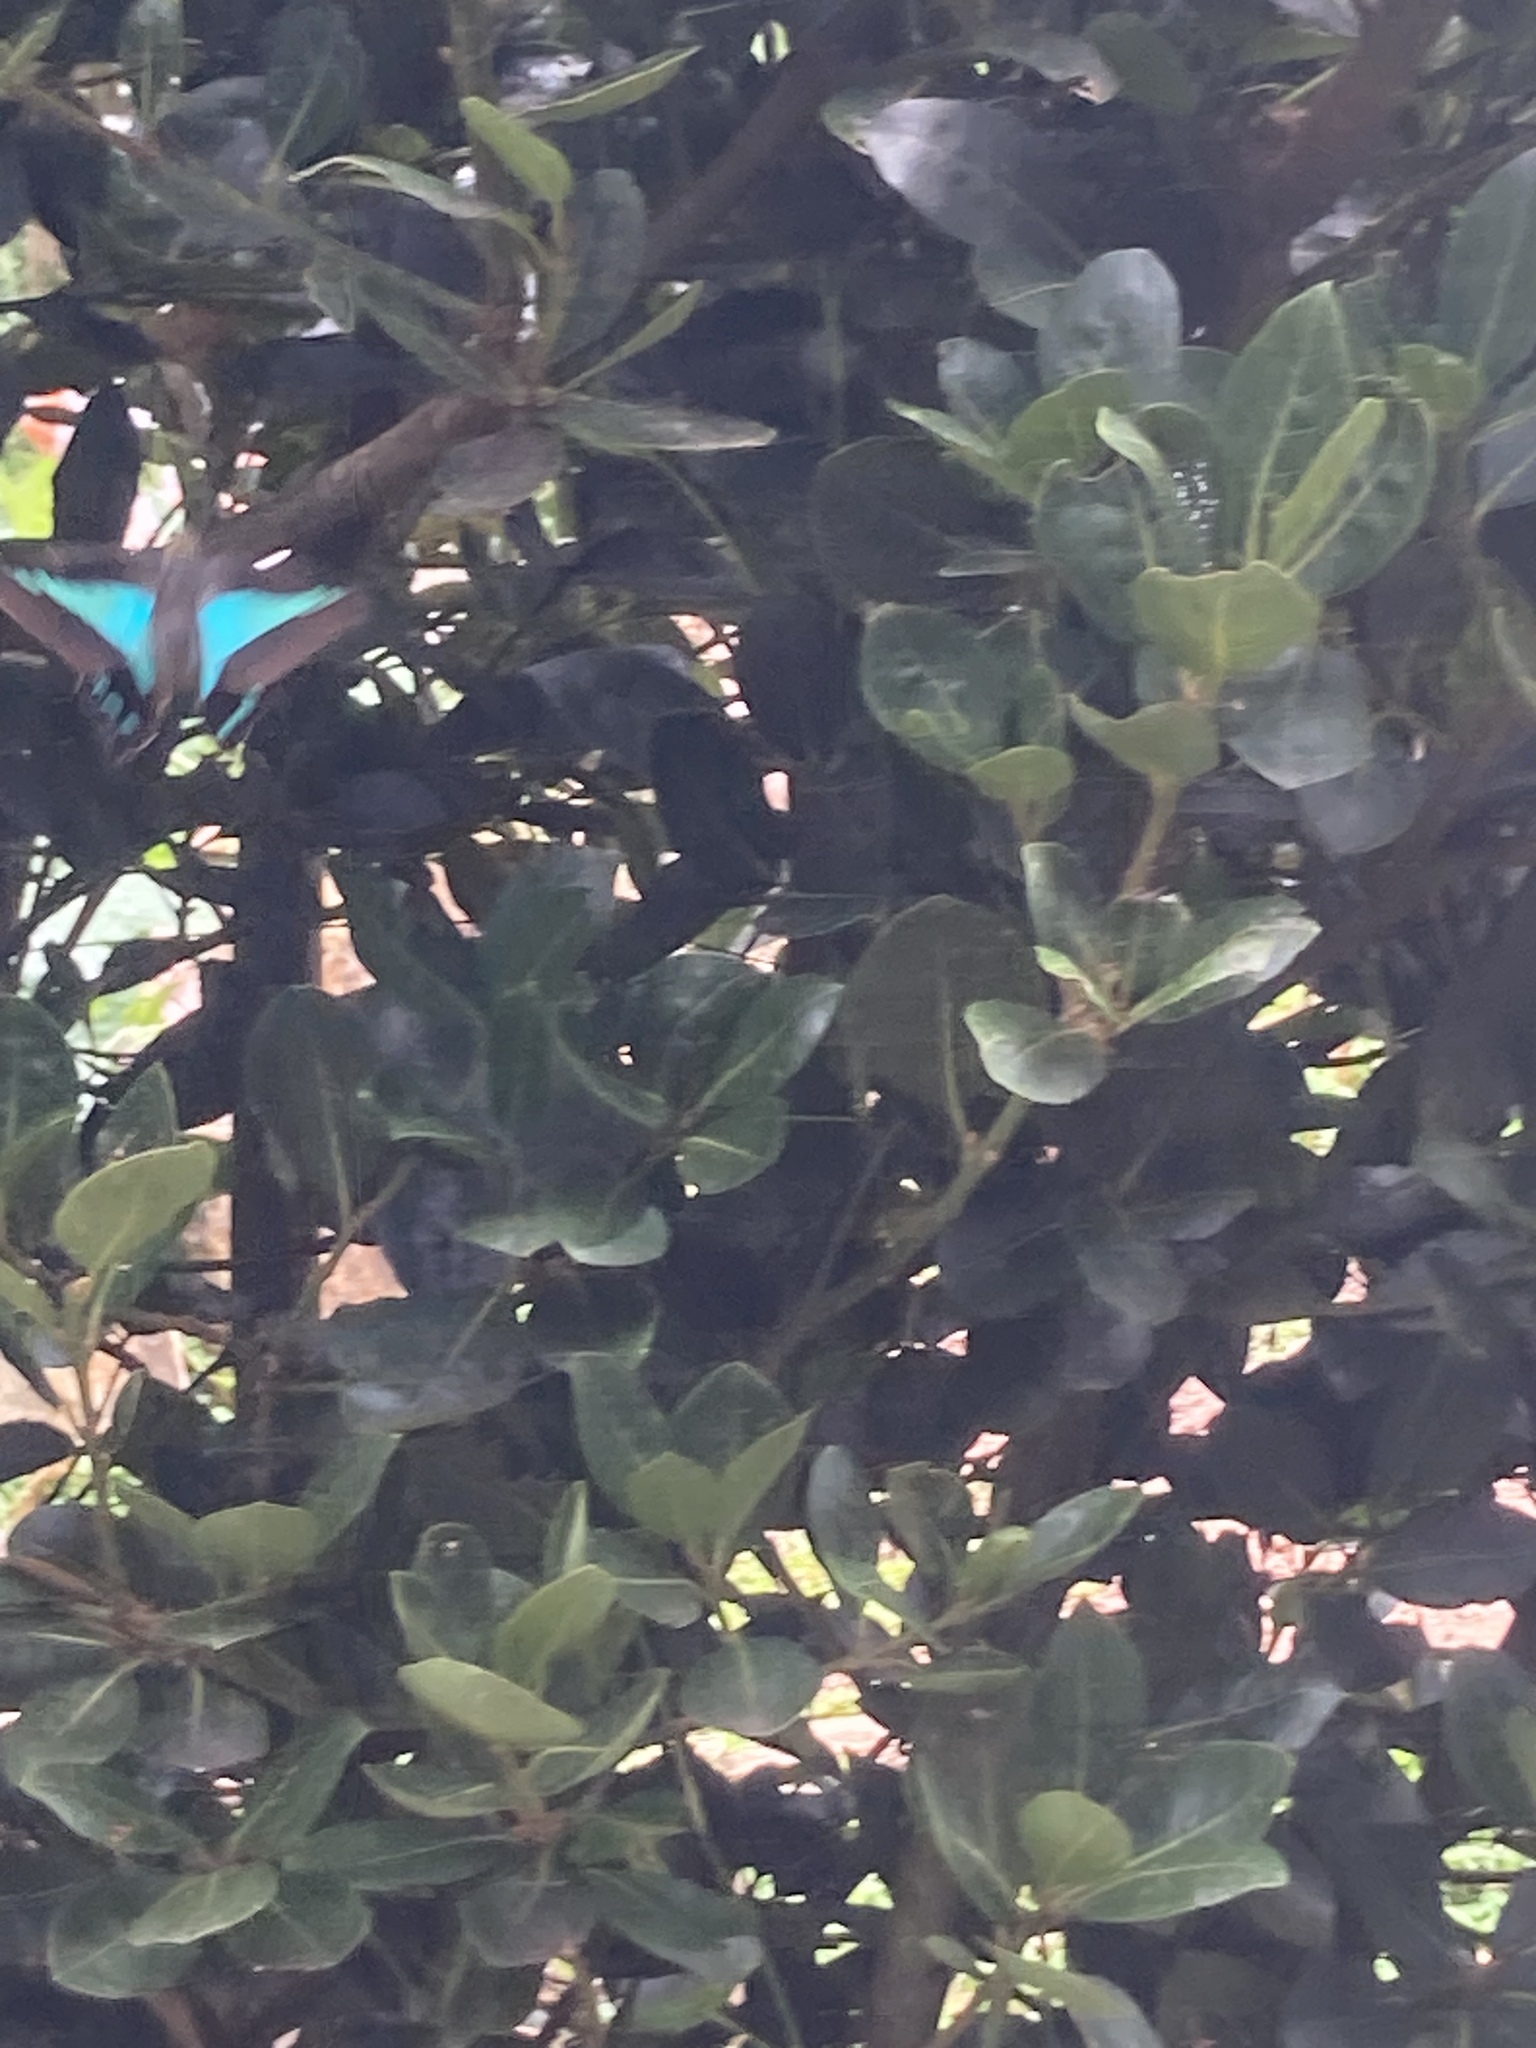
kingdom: Animalia
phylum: Arthropoda
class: Insecta
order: Lepidoptera
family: Papilionidae
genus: Graphium
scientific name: Graphium
